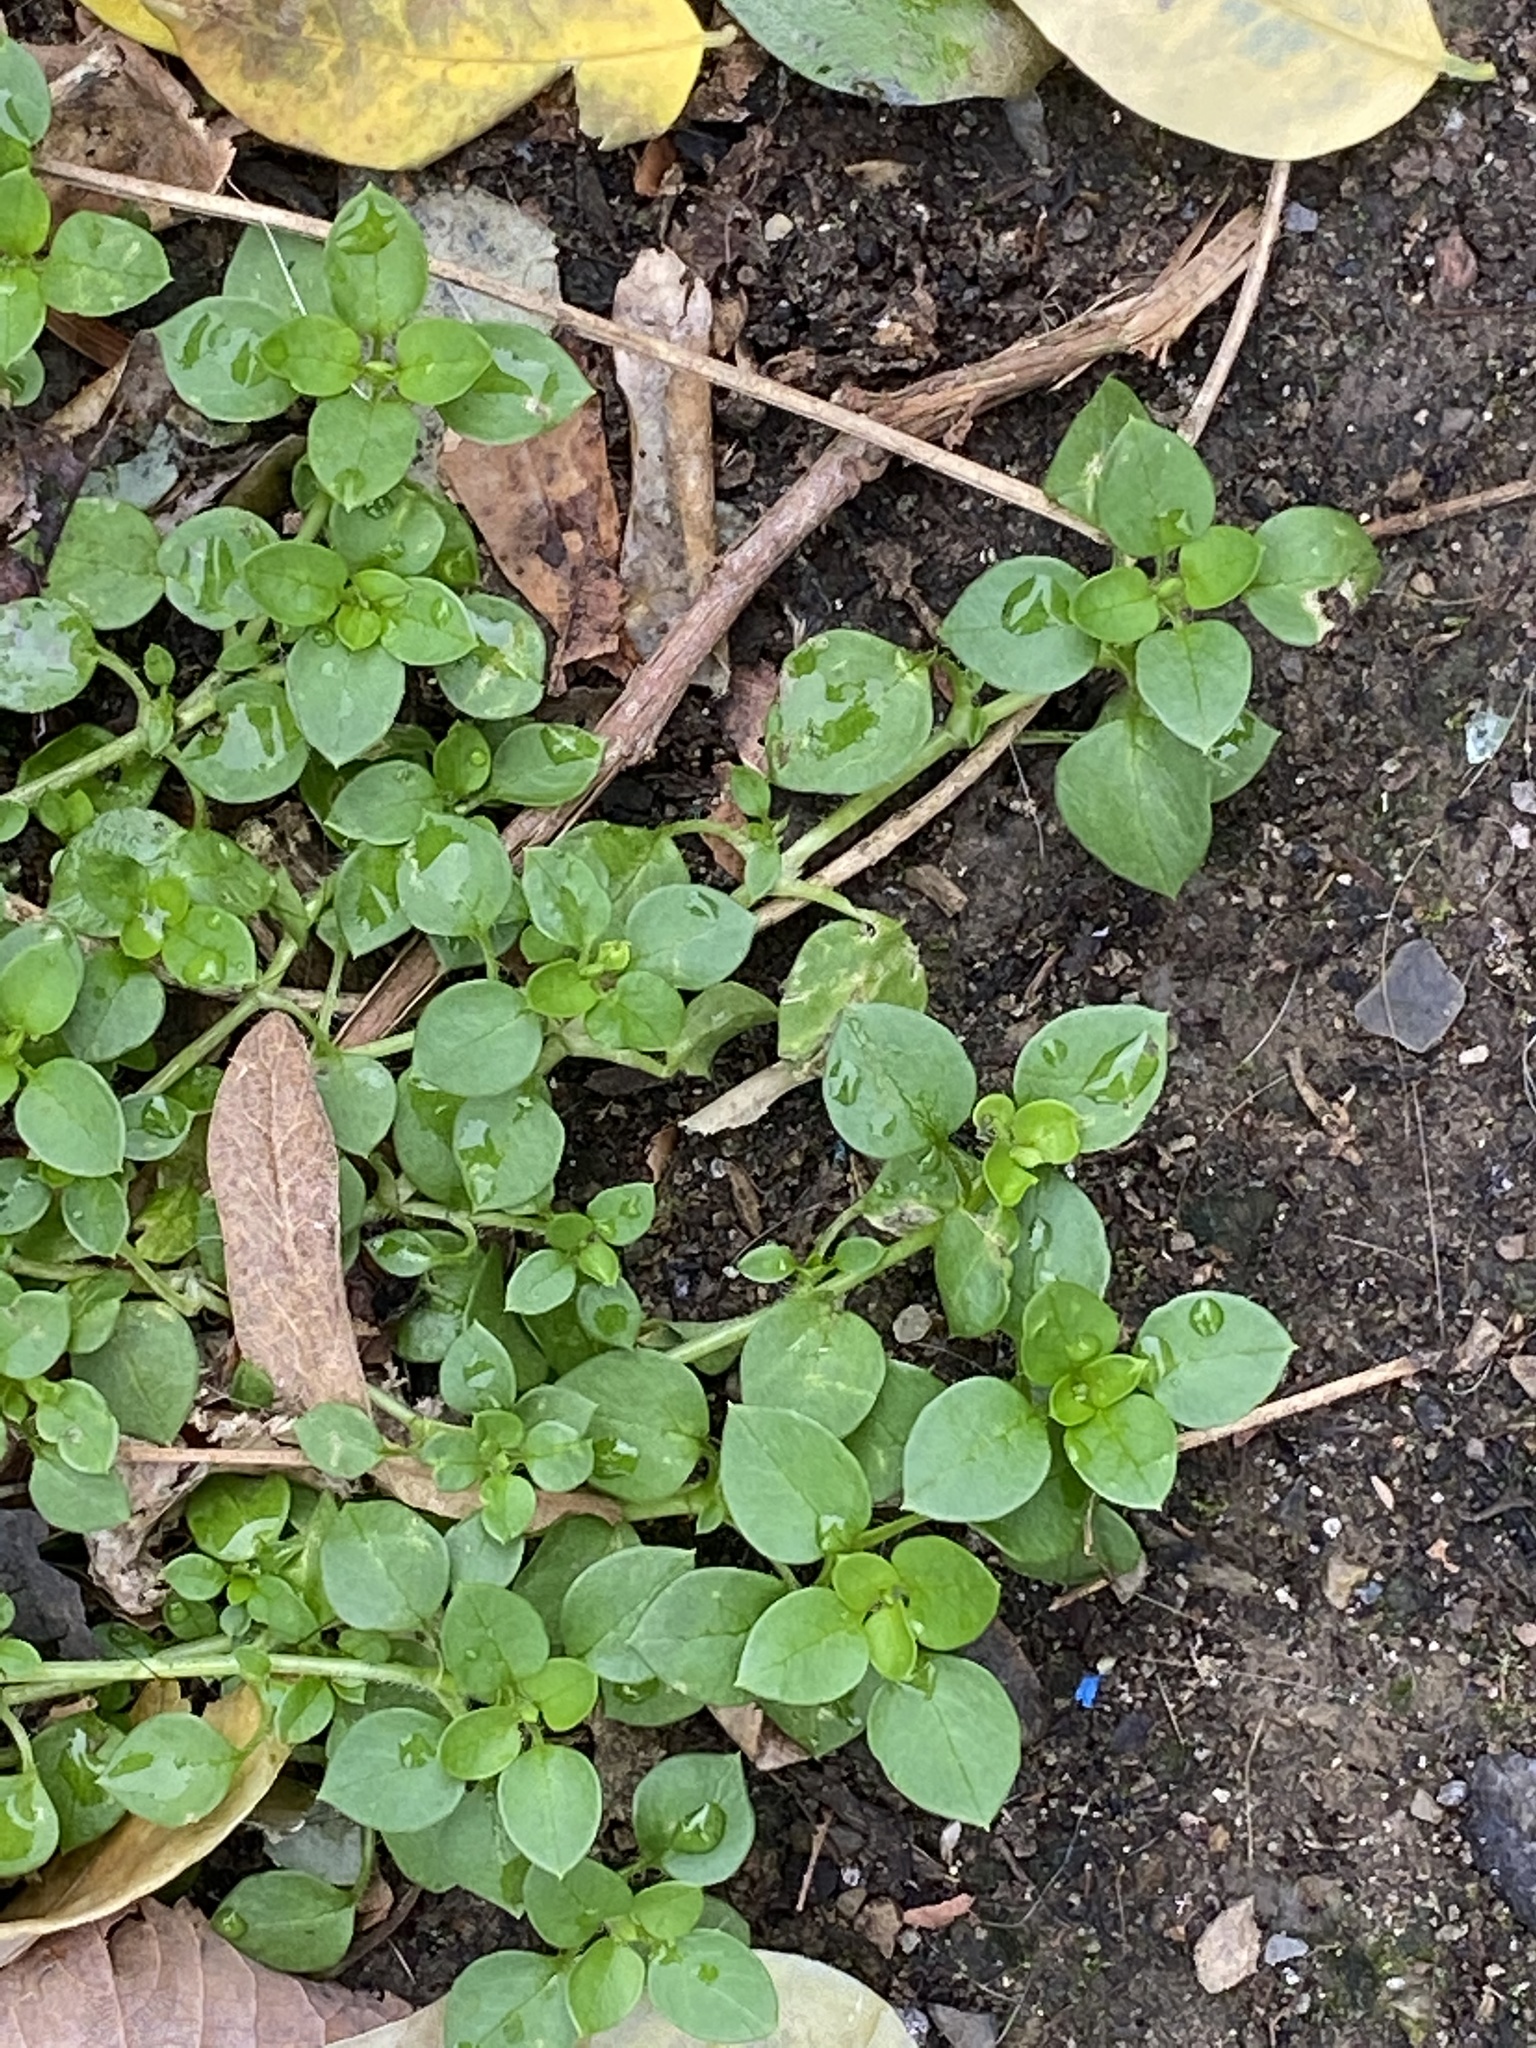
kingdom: Plantae
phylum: Tracheophyta
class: Magnoliopsida
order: Caryophyllales
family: Caryophyllaceae
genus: Stellaria
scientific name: Stellaria media
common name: Common chickweed
